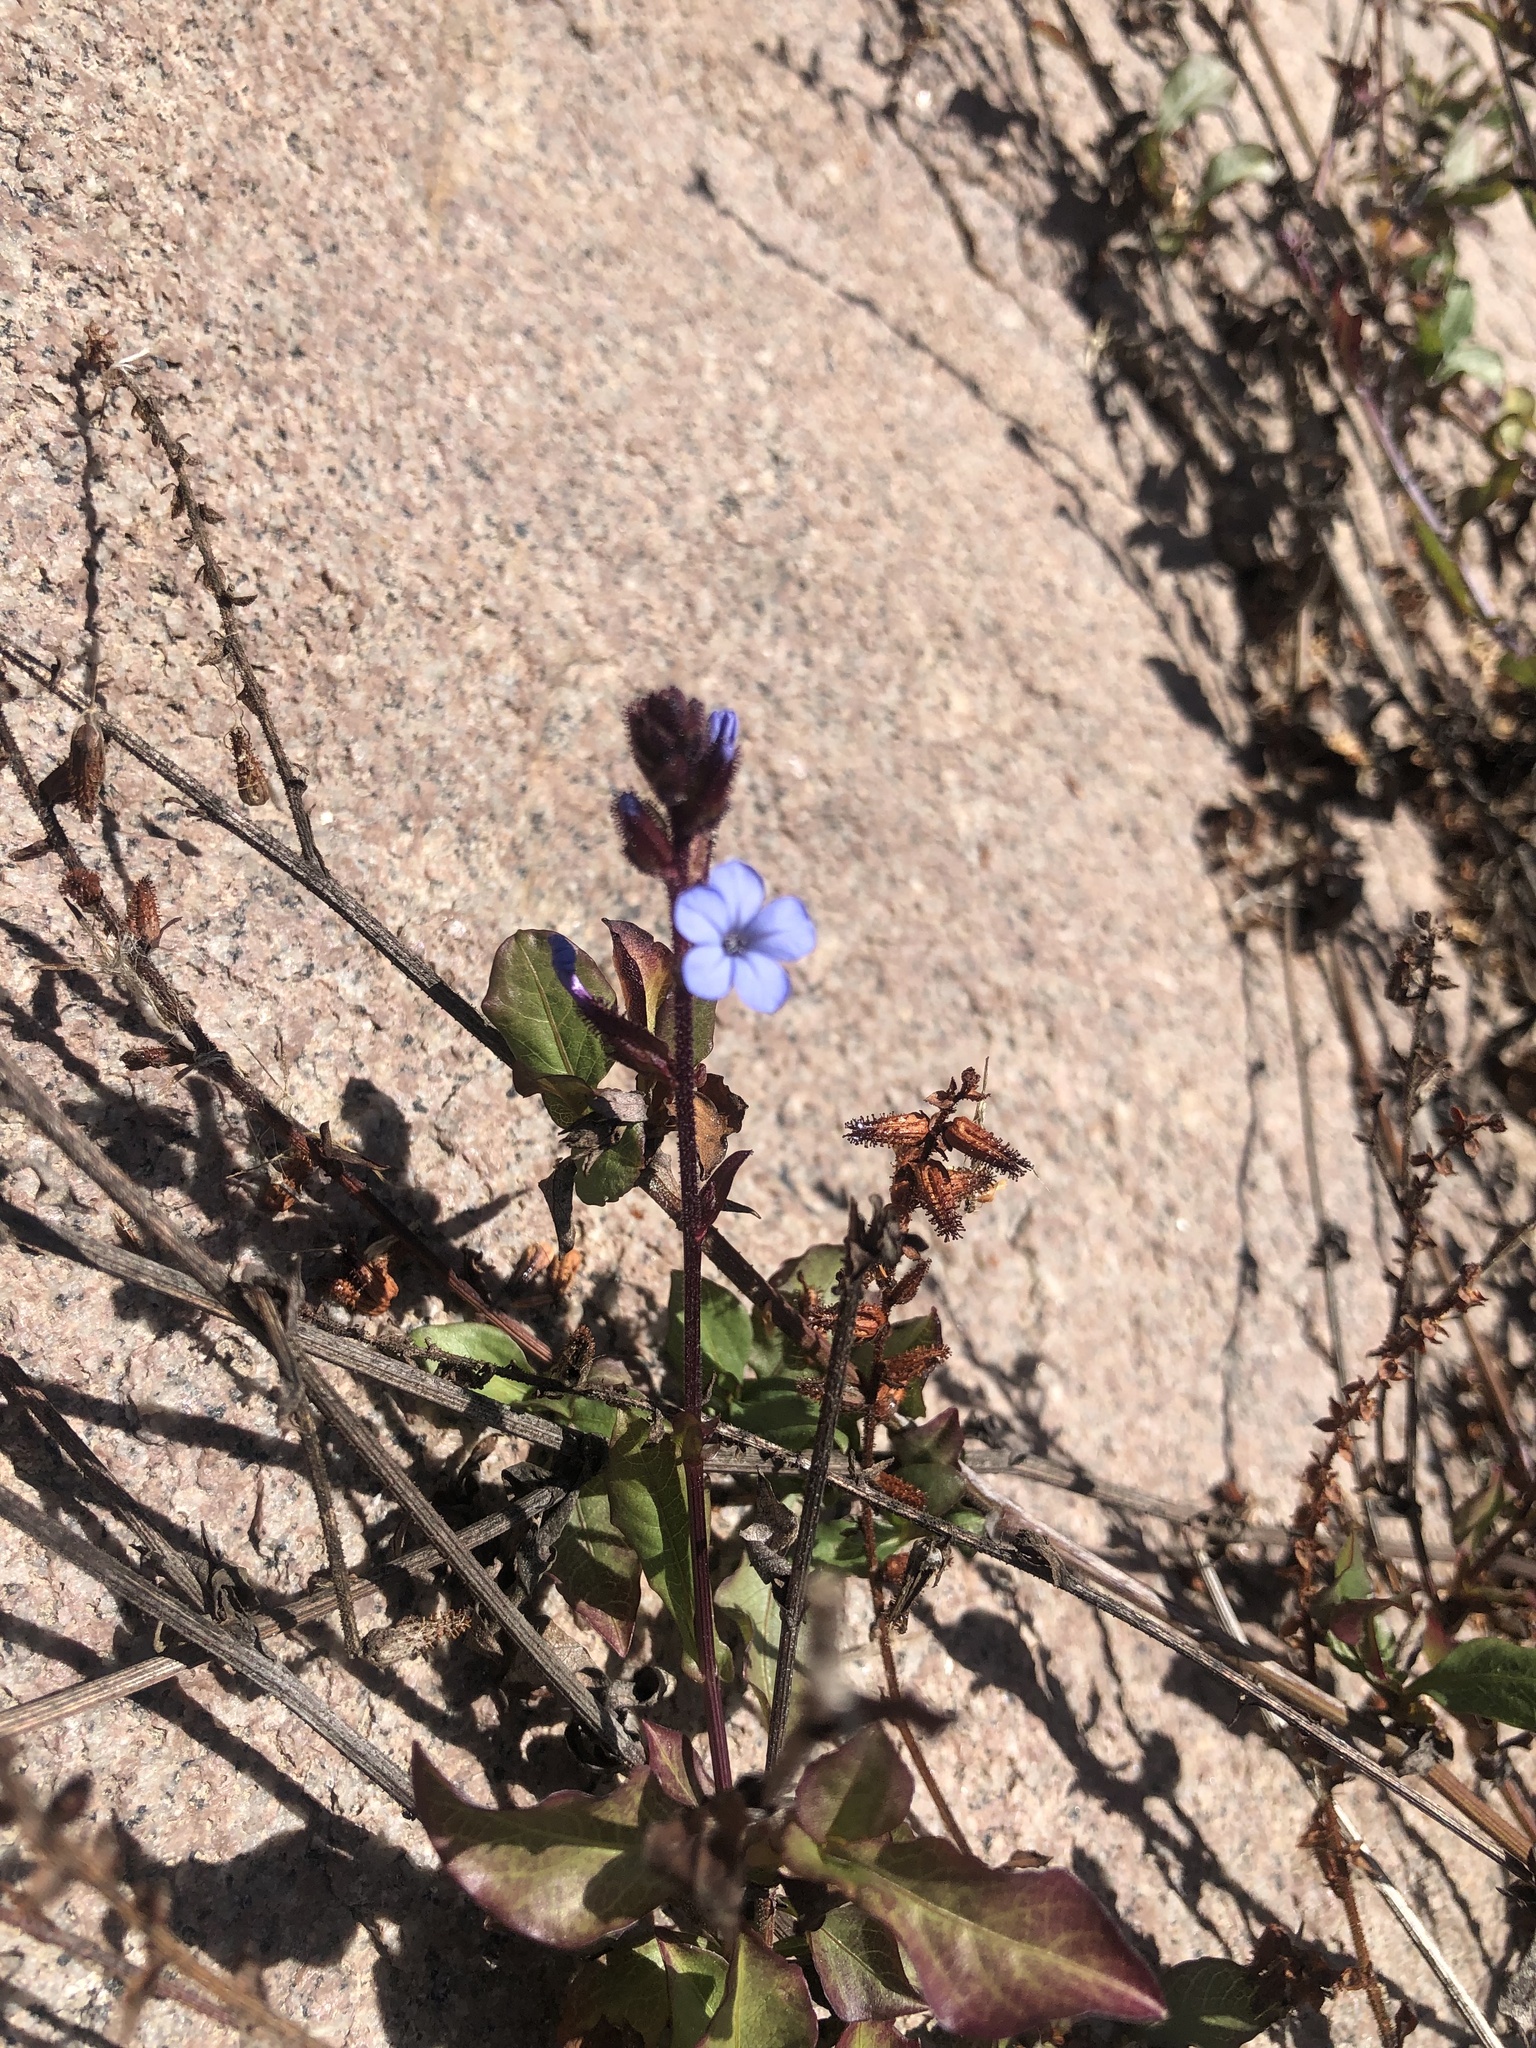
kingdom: Plantae
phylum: Tracheophyta
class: Magnoliopsida
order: Caryophyllales
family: Plumbaginaceae
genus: Plumbago
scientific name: Plumbago caerulea
